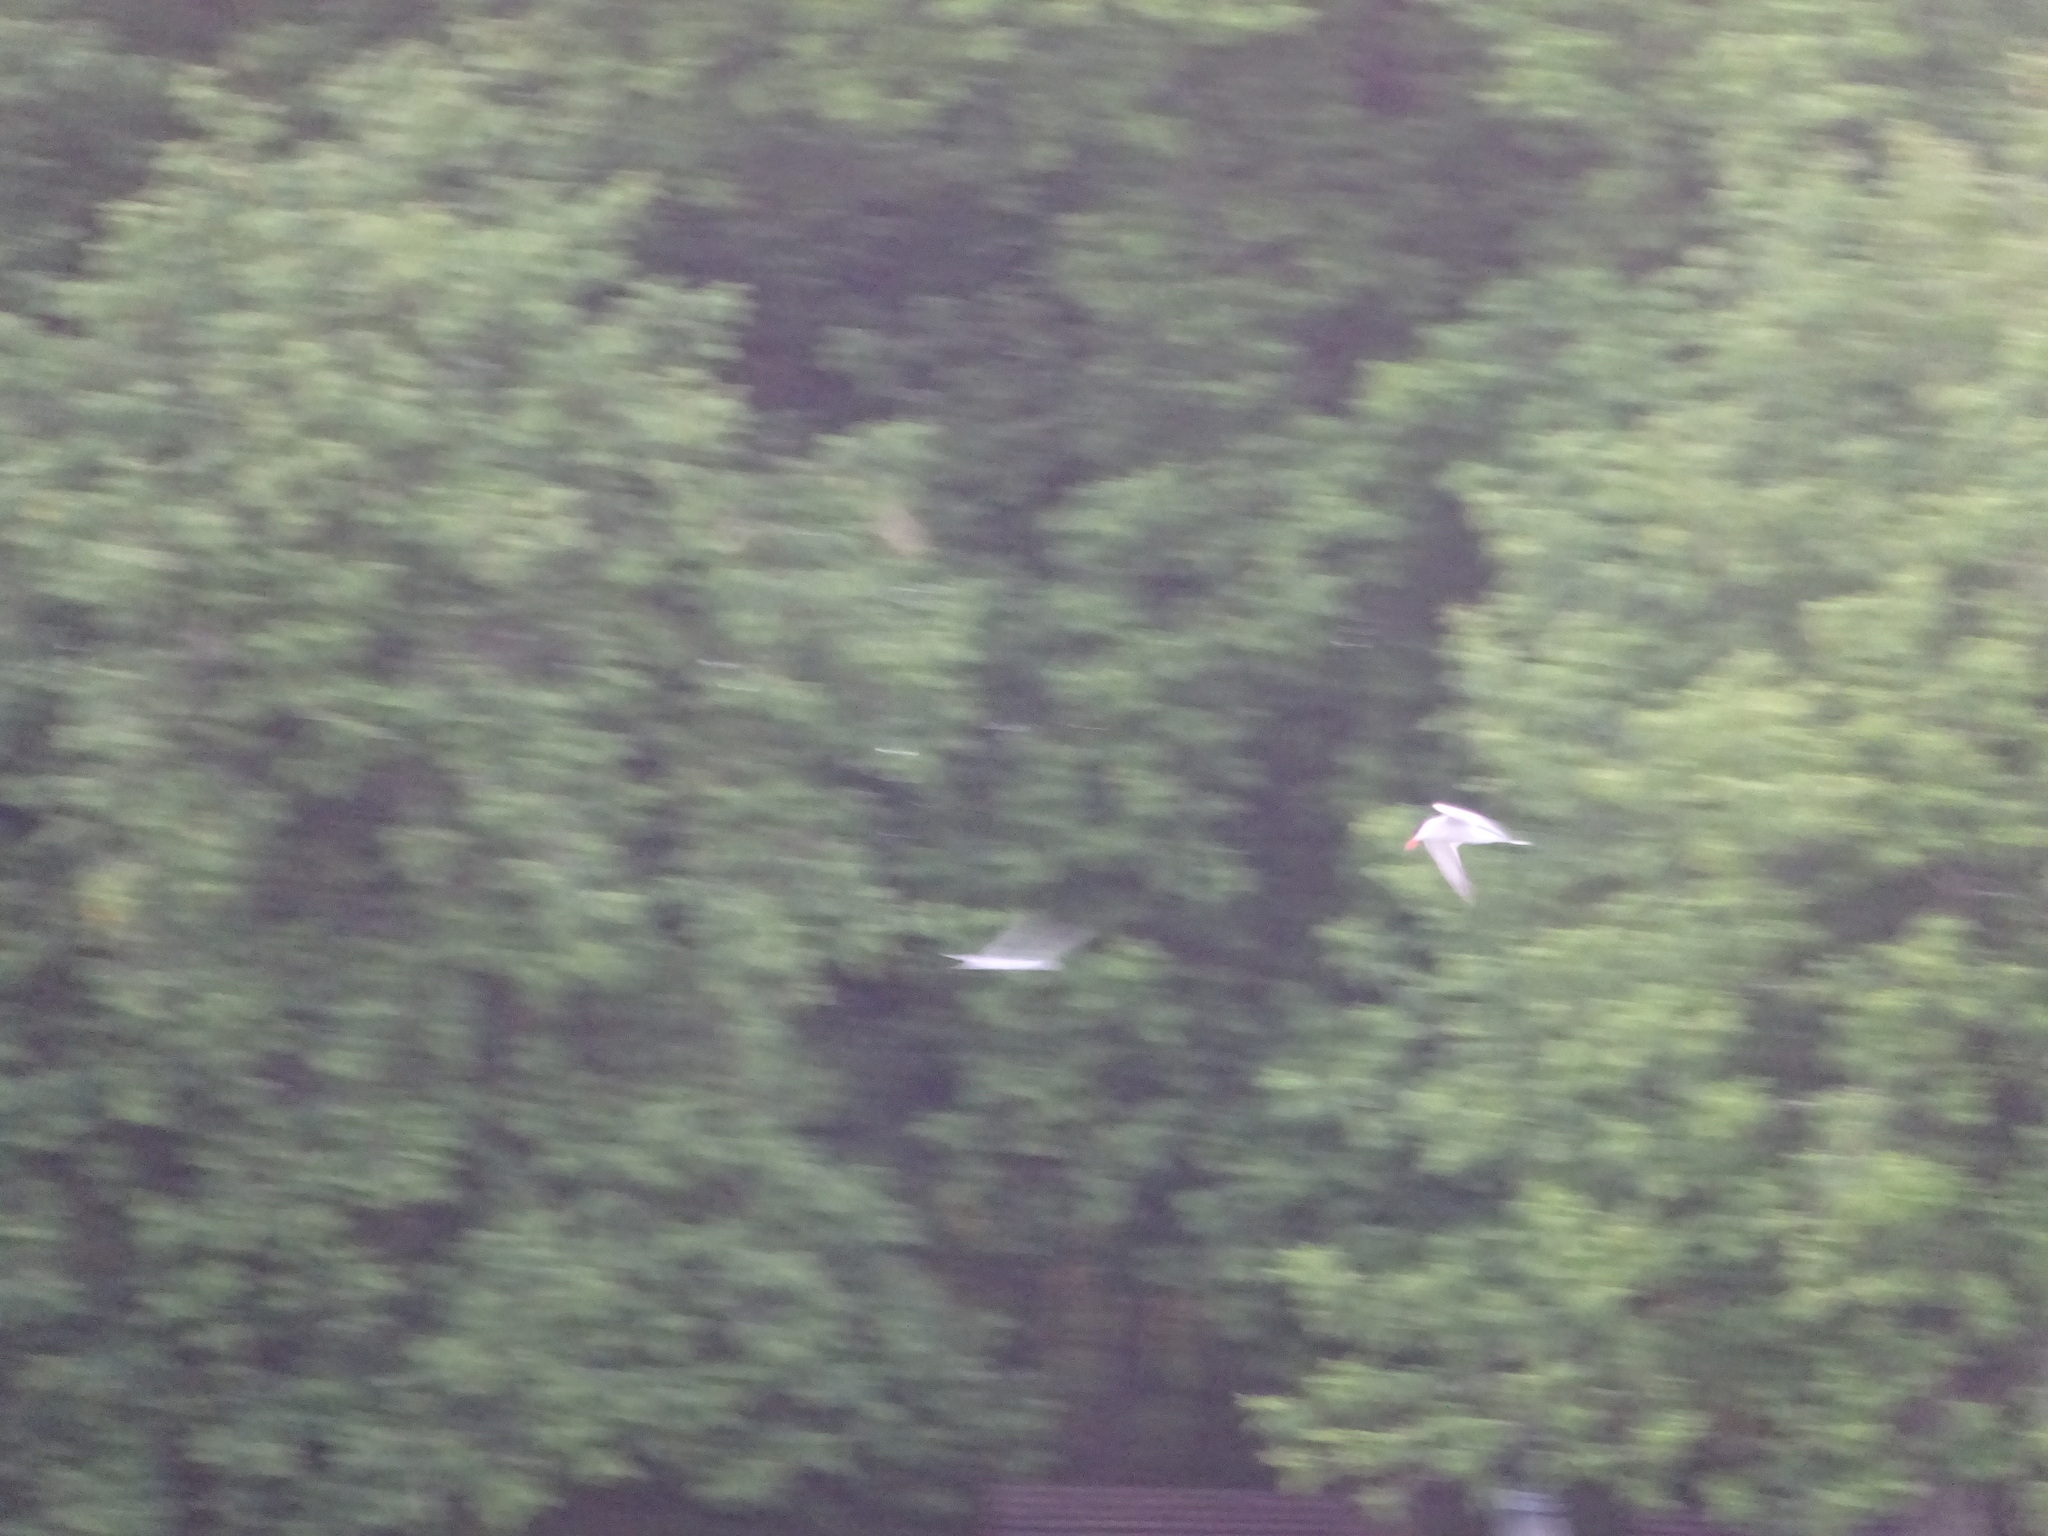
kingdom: Animalia
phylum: Chordata
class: Aves
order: Charadriiformes
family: Laridae
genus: Sterna
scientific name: Sterna hirundo
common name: Common tern
